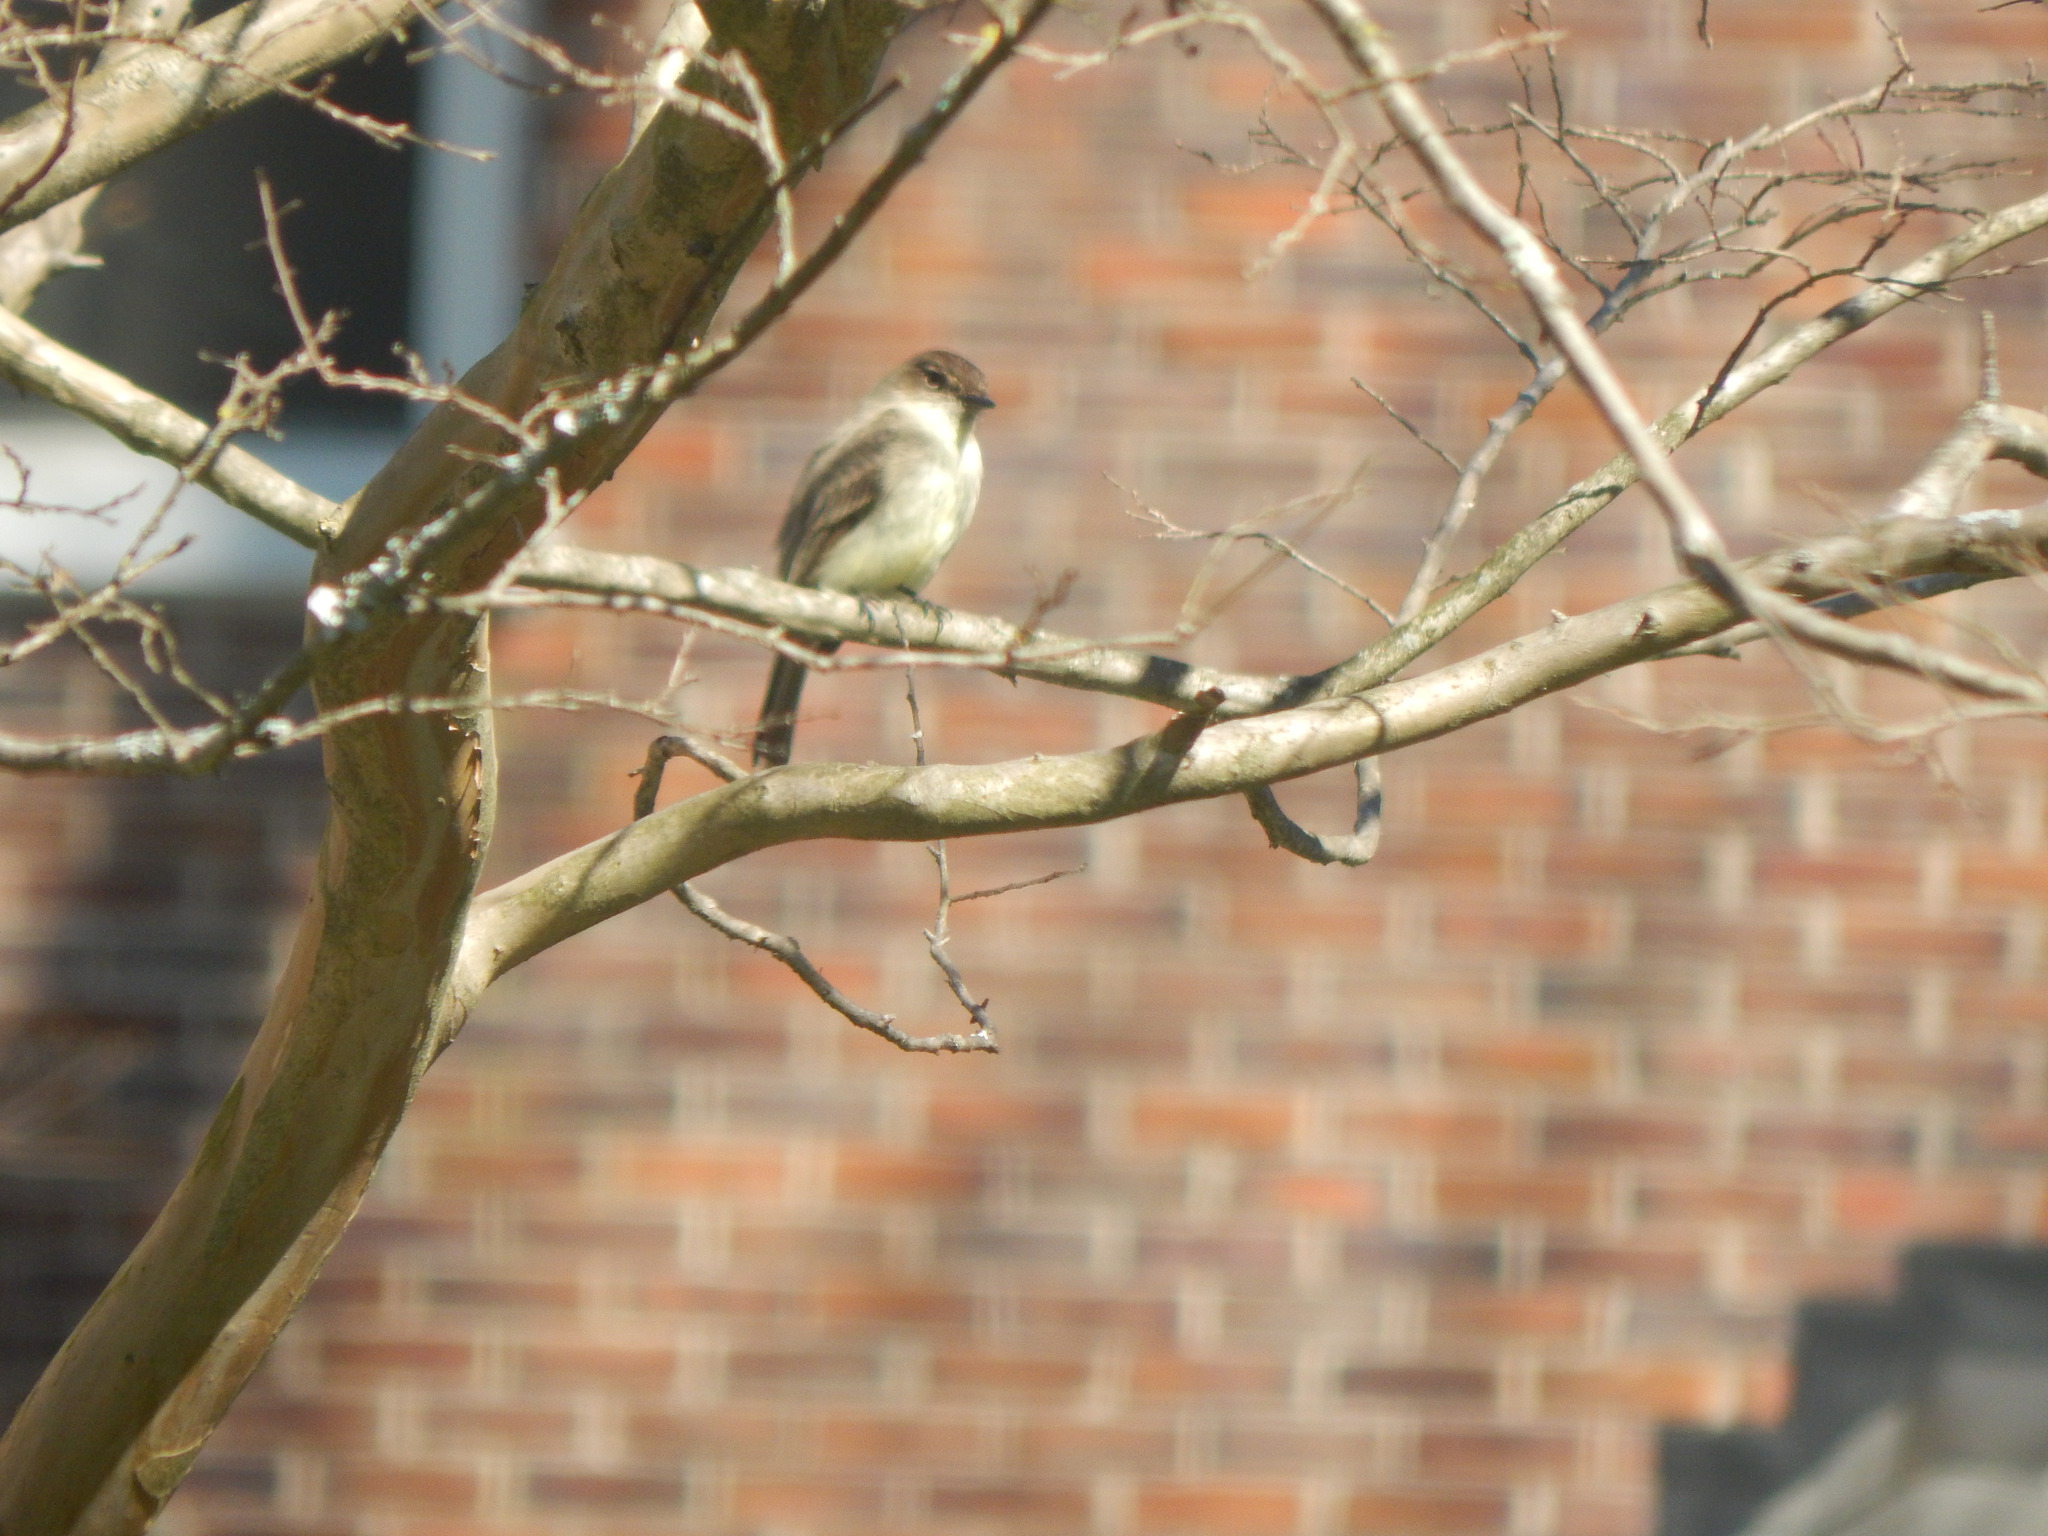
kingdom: Animalia
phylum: Chordata
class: Aves
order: Passeriformes
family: Tyrannidae
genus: Sayornis
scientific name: Sayornis phoebe
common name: Eastern phoebe
